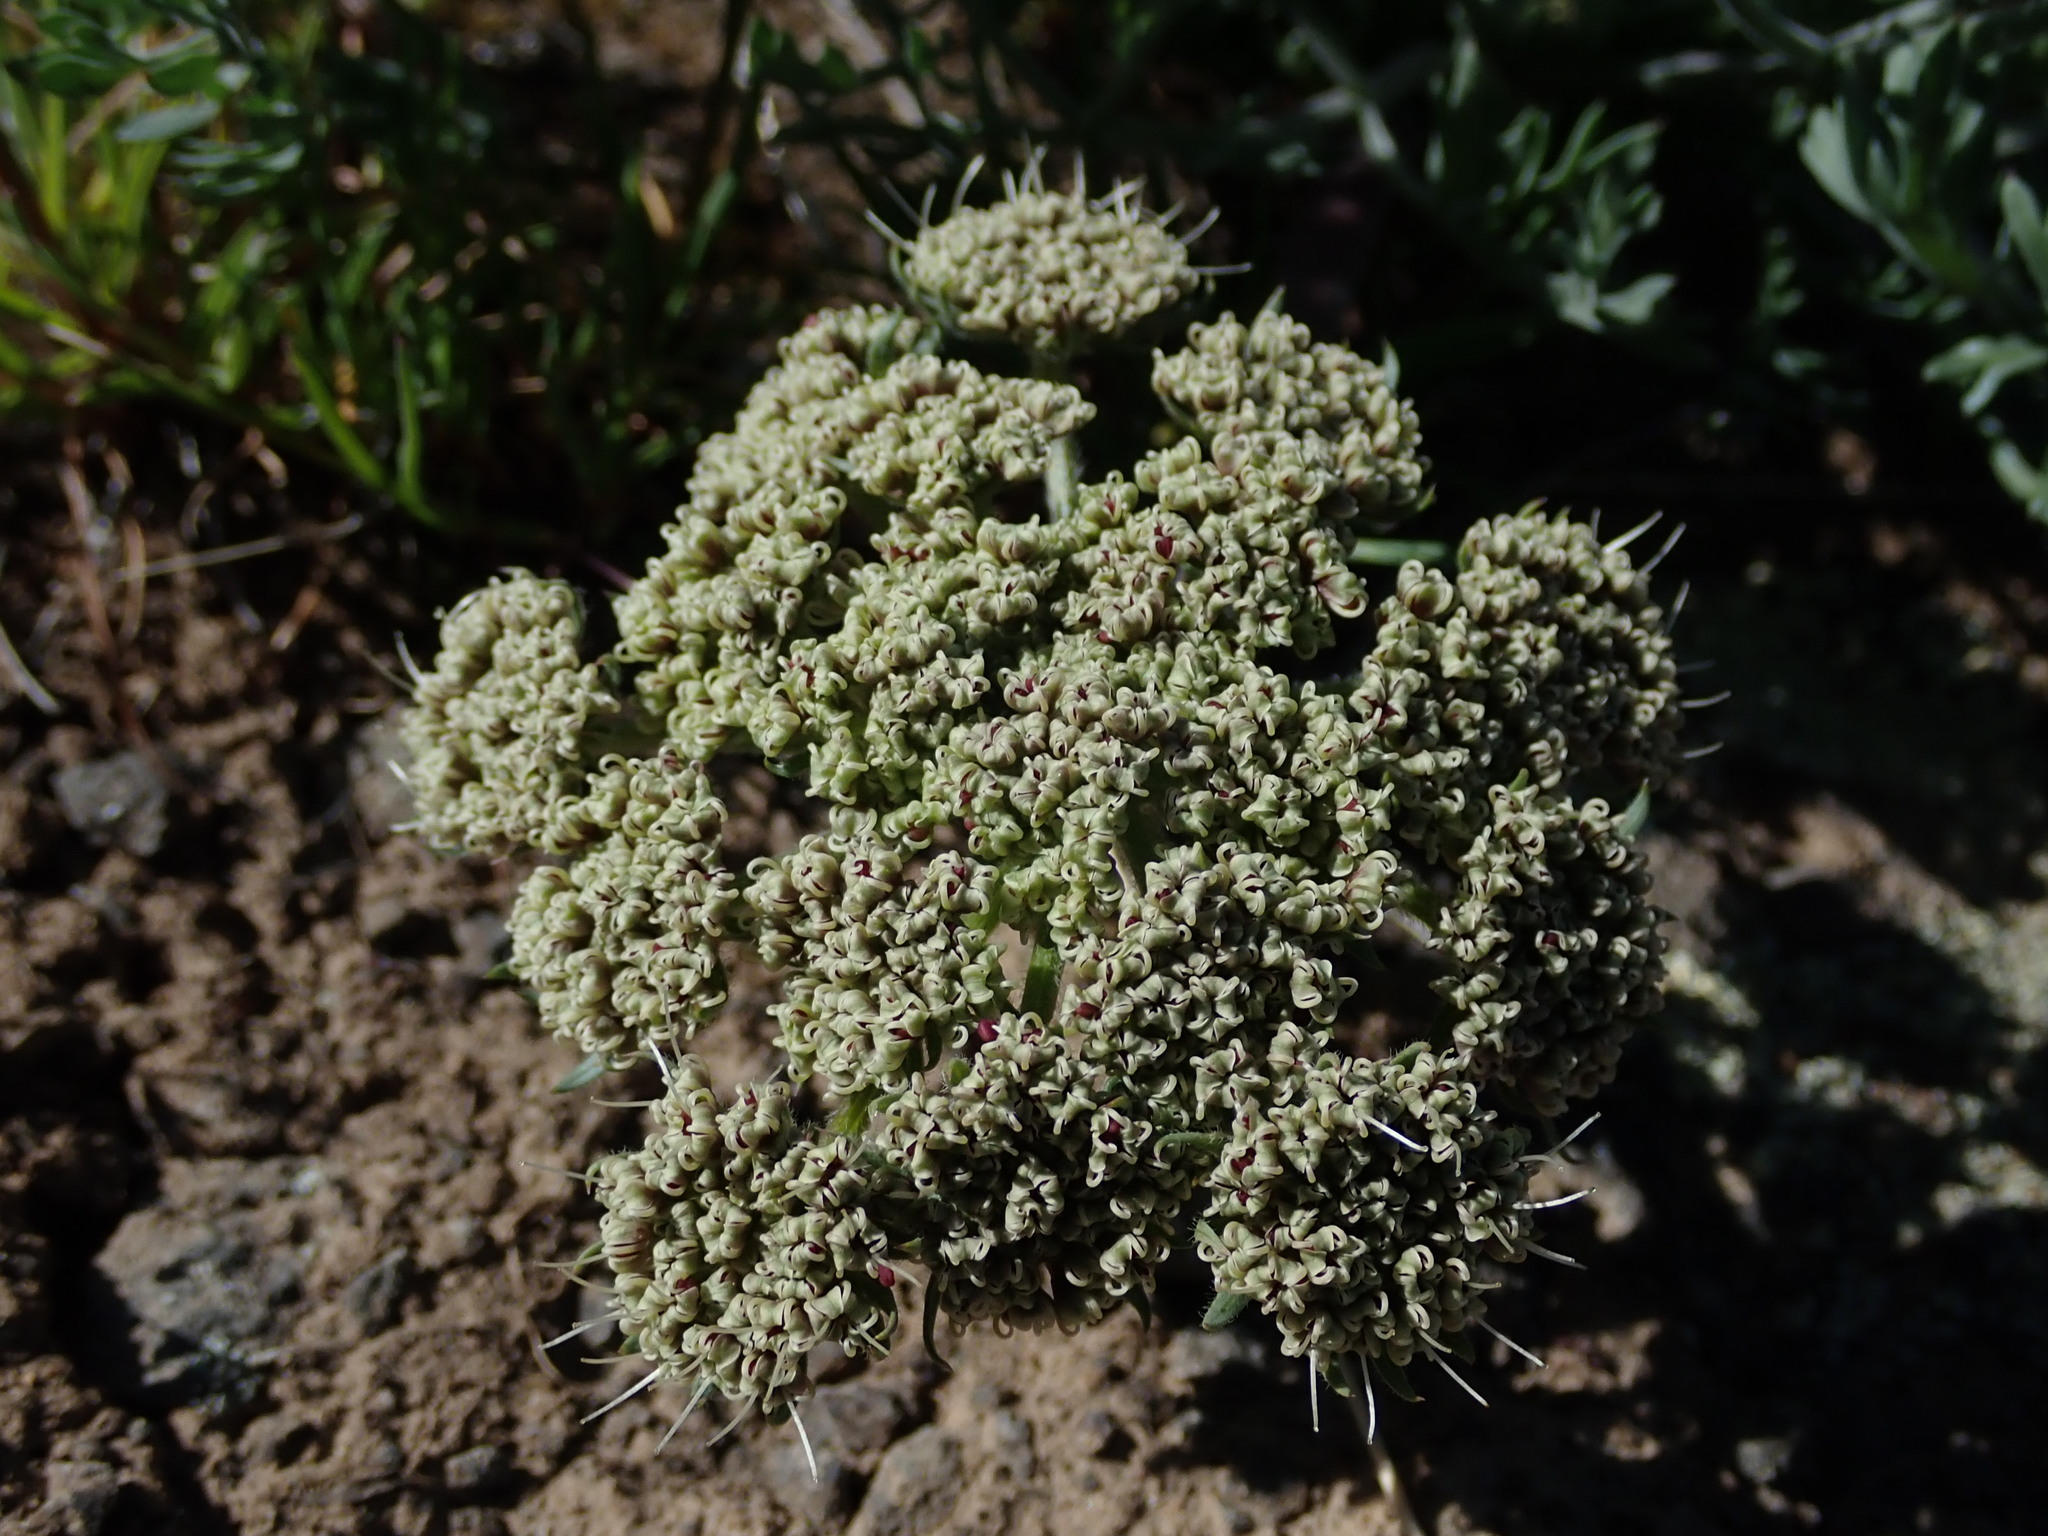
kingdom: Plantae
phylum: Tracheophyta
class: Magnoliopsida
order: Apiales
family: Apiaceae
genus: Lomatium
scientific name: Lomatium macrocarpum
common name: Big-seed biscuitroot
